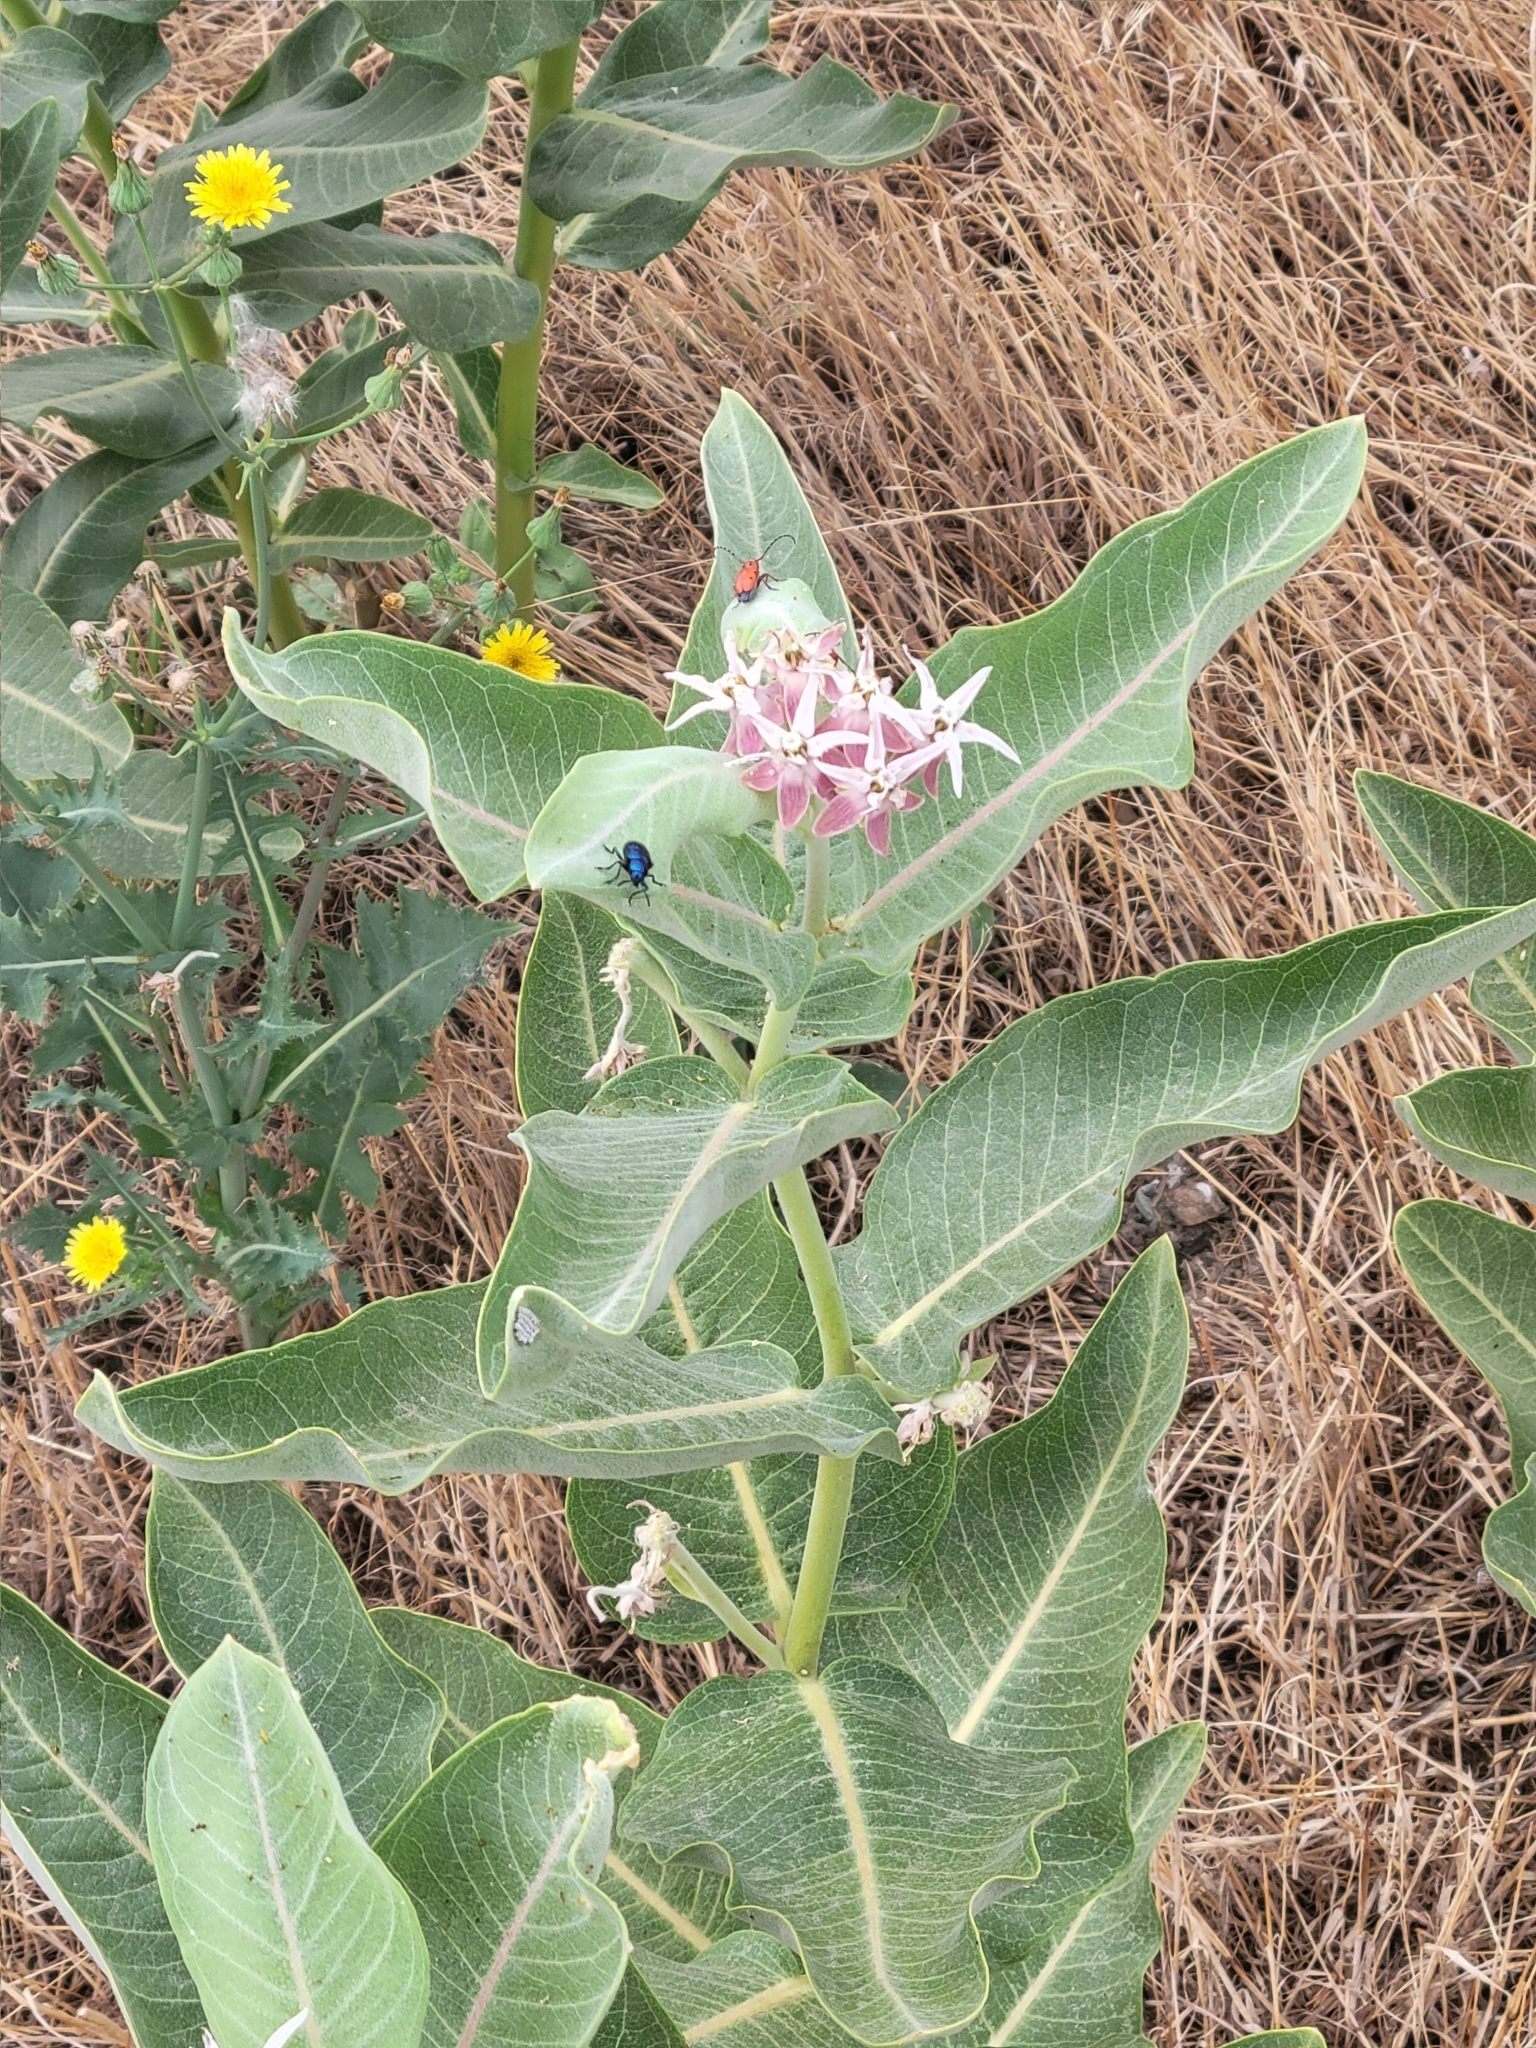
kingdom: Plantae
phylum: Tracheophyta
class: Magnoliopsida
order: Gentianales
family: Apocynaceae
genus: Asclepias
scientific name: Asclepias speciosa
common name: Showy milkweed
